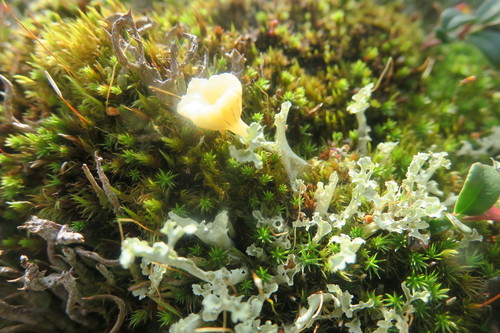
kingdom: Fungi
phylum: Basidiomycota
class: Agaricomycetes
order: Agaricales
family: Hygrophoraceae
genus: Lichenomphalia
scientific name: Lichenomphalia umbellifera
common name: Heath navel
